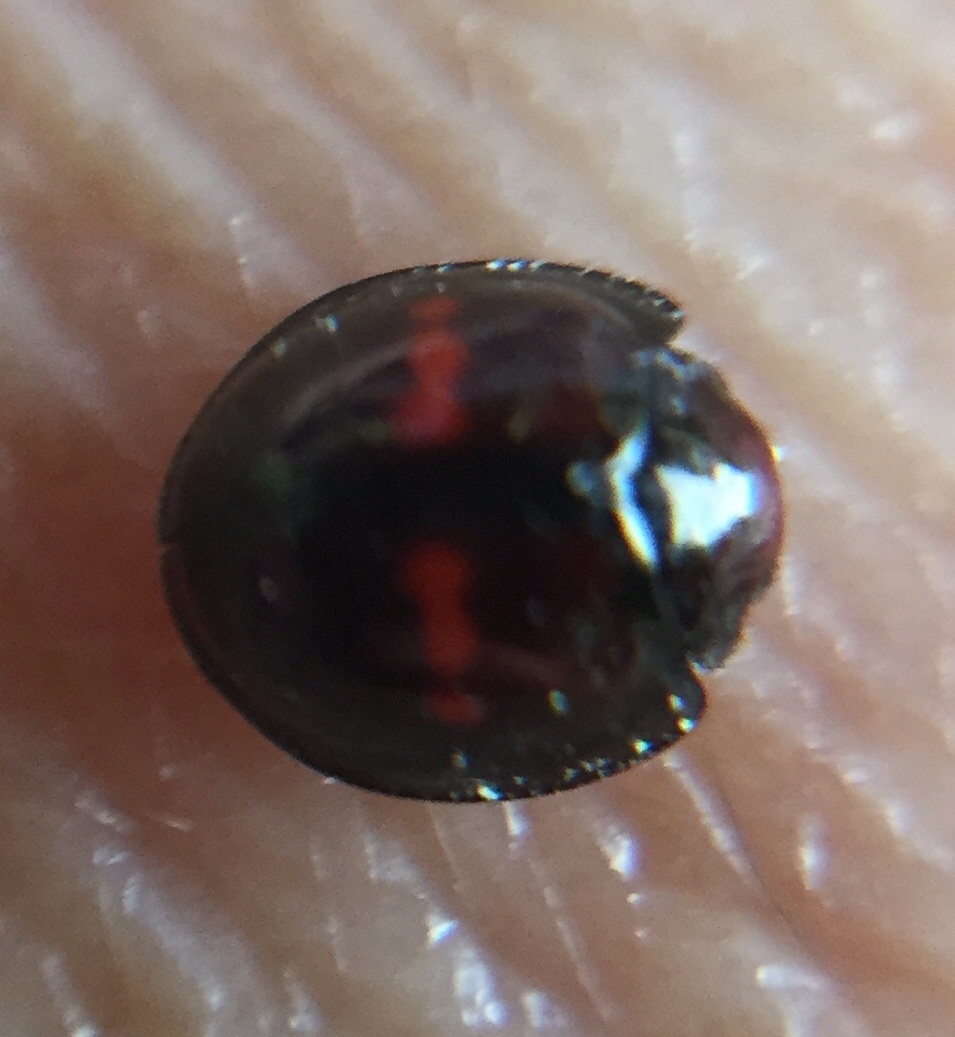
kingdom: Animalia
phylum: Arthropoda
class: Insecta
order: Coleoptera
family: Coccinellidae
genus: Chilocorus
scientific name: Chilocorus bipustulatus
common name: Heather ladybird
